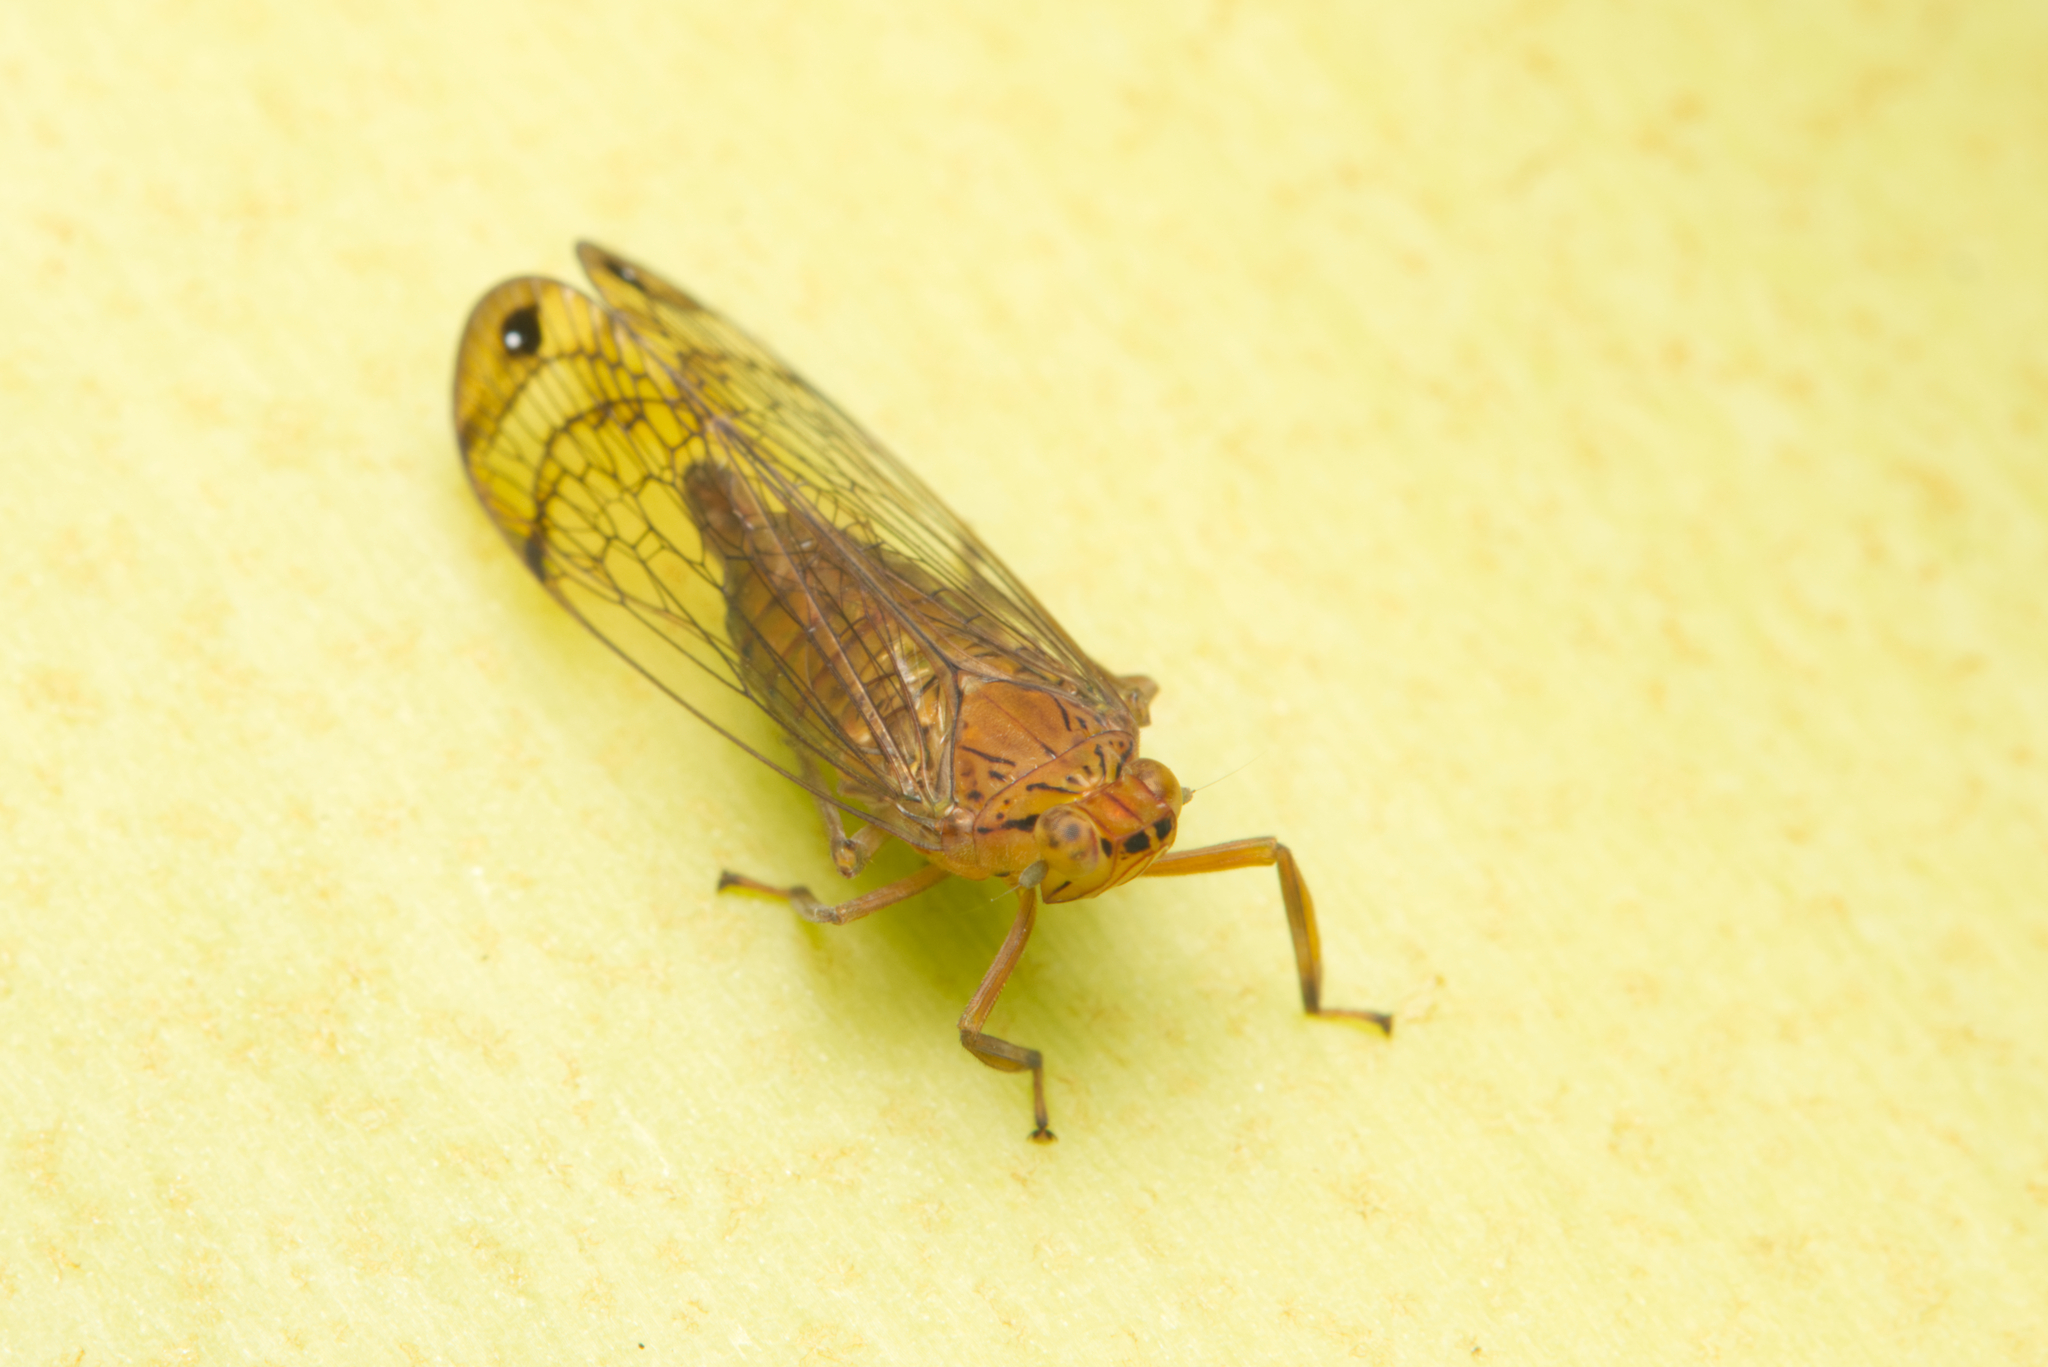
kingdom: Animalia
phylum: Arthropoda
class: Insecta
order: Hemiptera
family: Lophopidae
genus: Magia
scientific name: Magia subocellata
